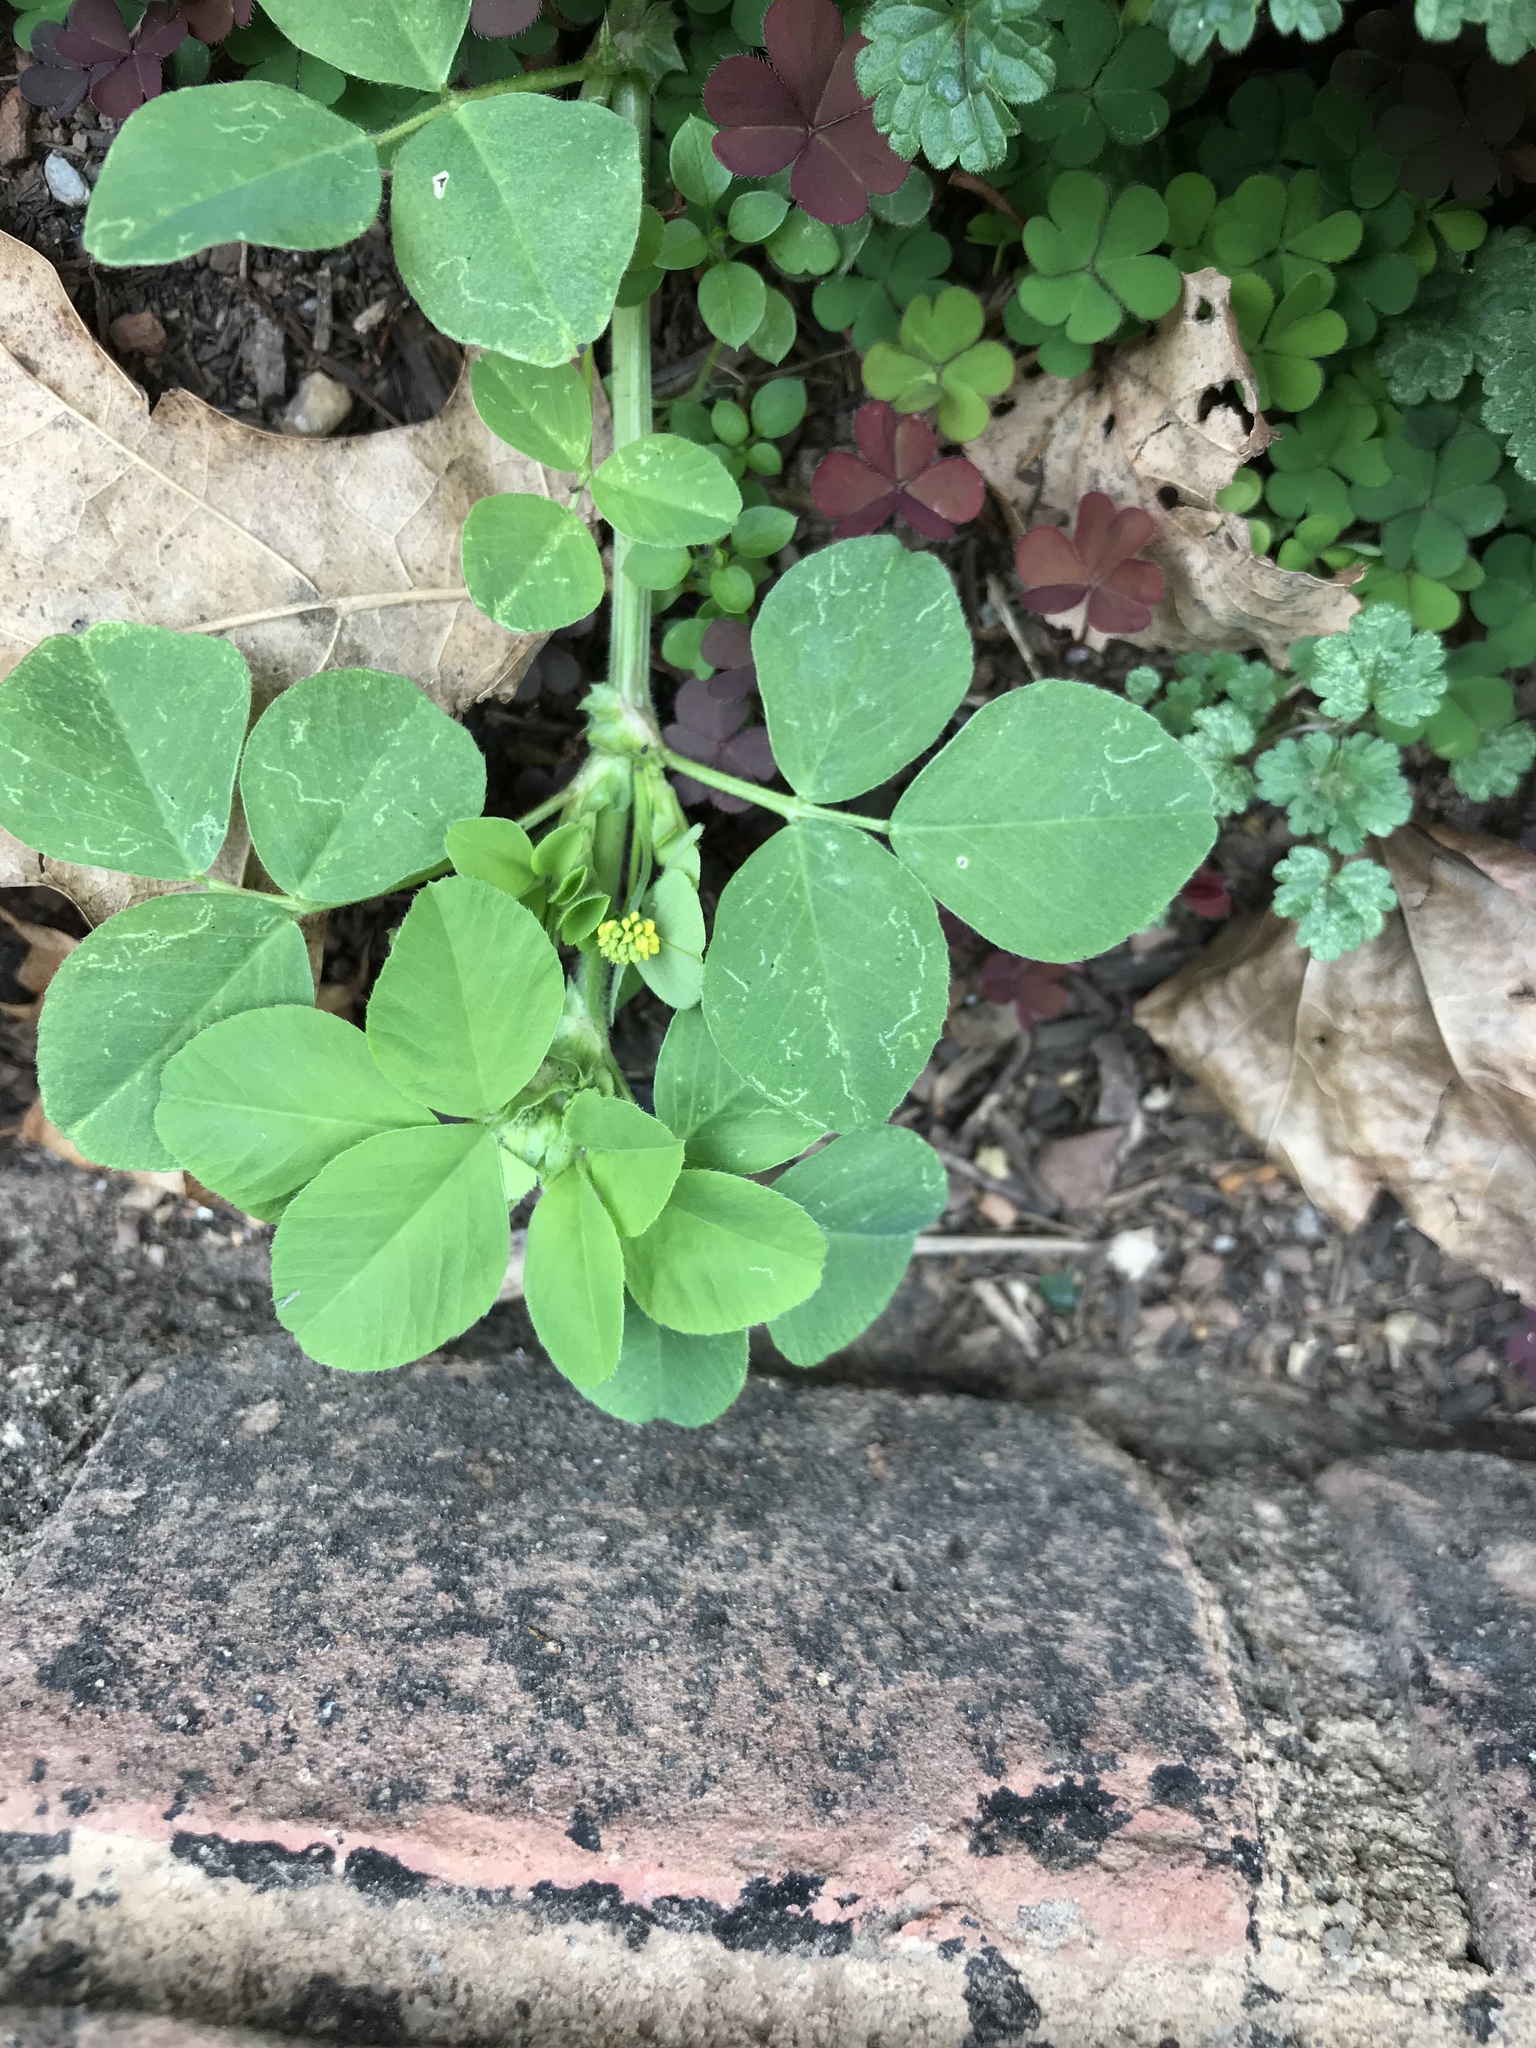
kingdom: Plantae
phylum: Tracheophyta
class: Magnoliopsida
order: Fabales
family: Fabaceae
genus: Medicago
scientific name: Medicago lupulina
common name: Black medick
